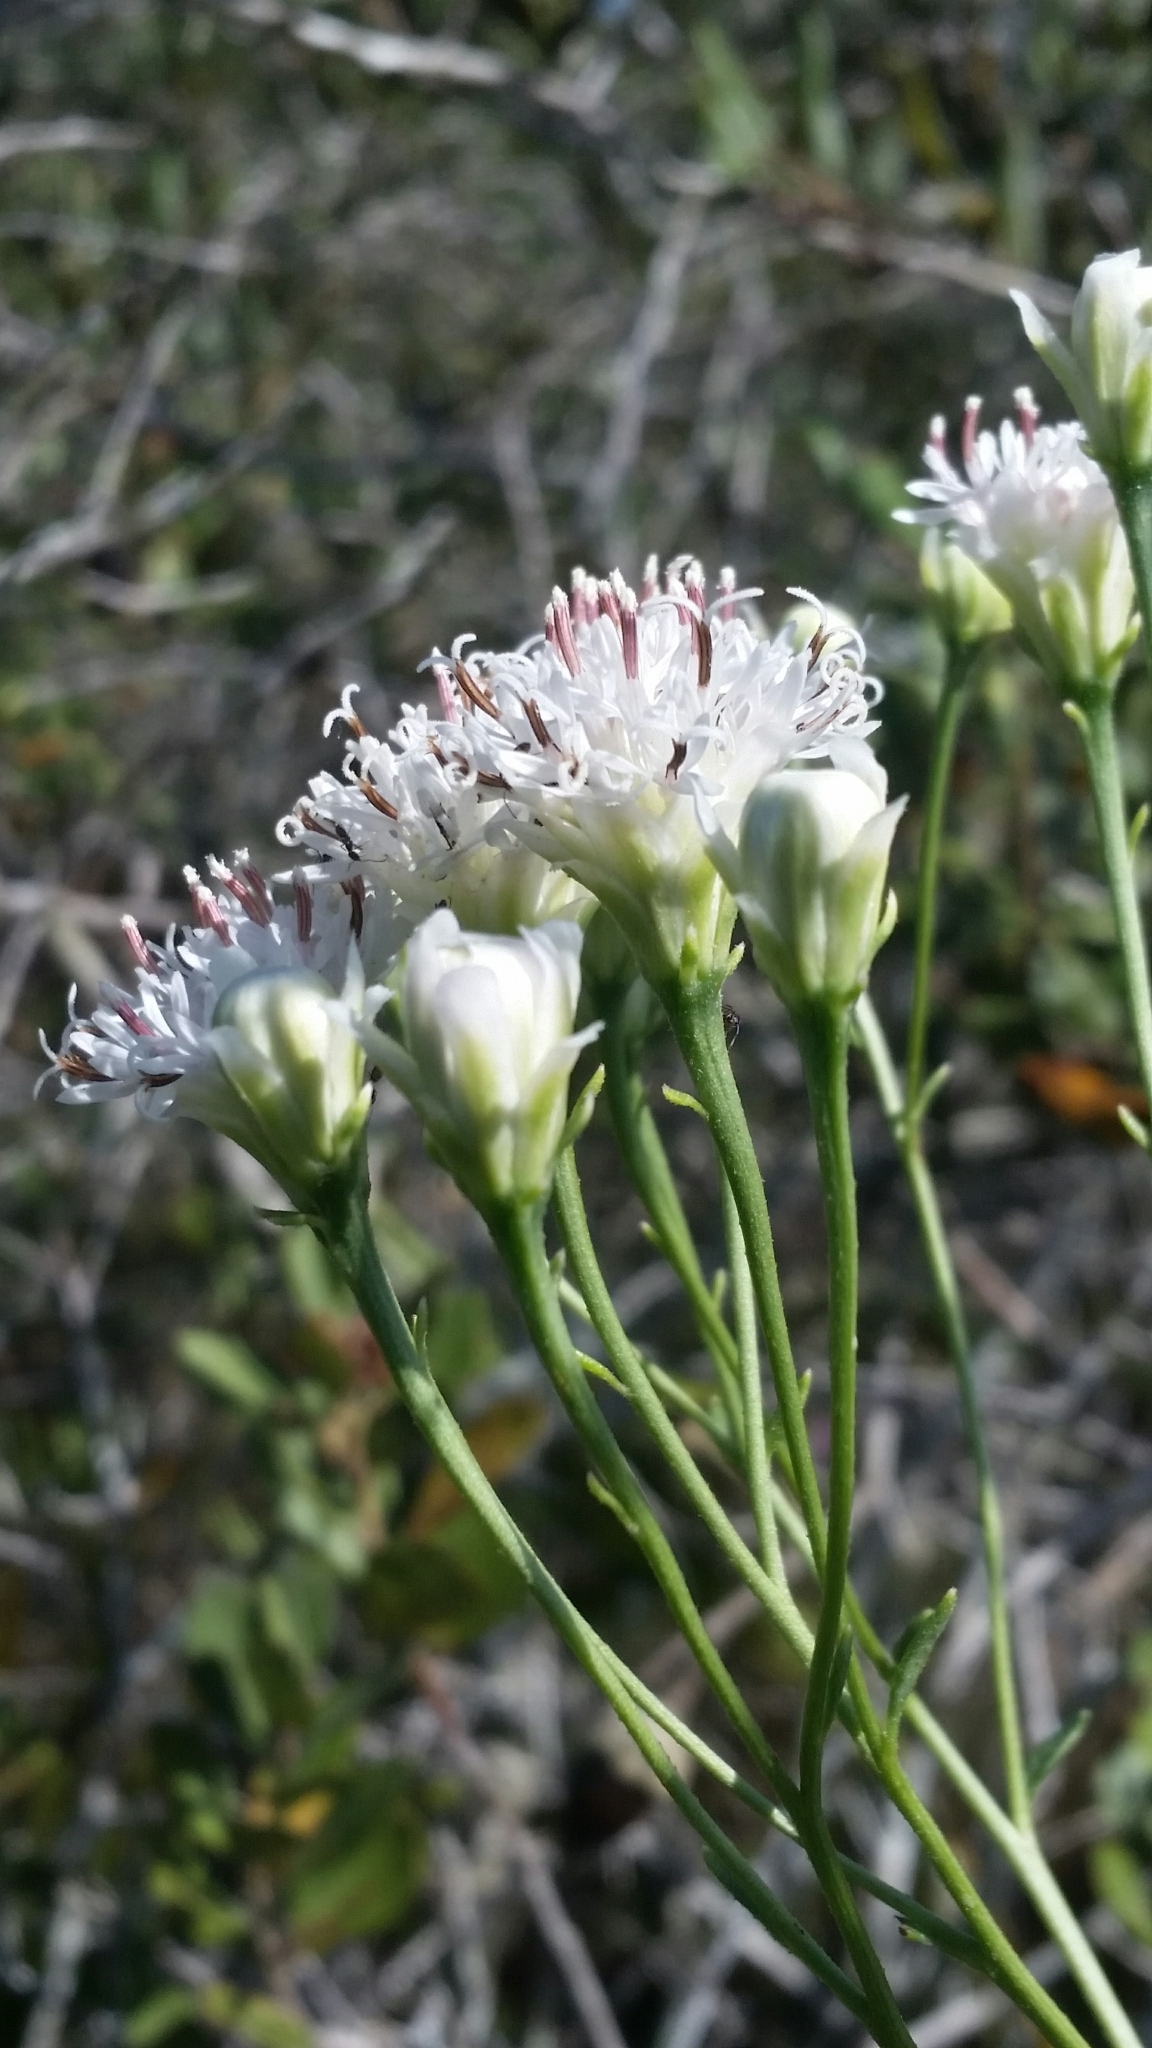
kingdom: Plantae
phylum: Tracheophyta
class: Magnoliopsida
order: Asterales
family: Asteraceae
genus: Palafoxia
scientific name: Palafoxia integrifolia
